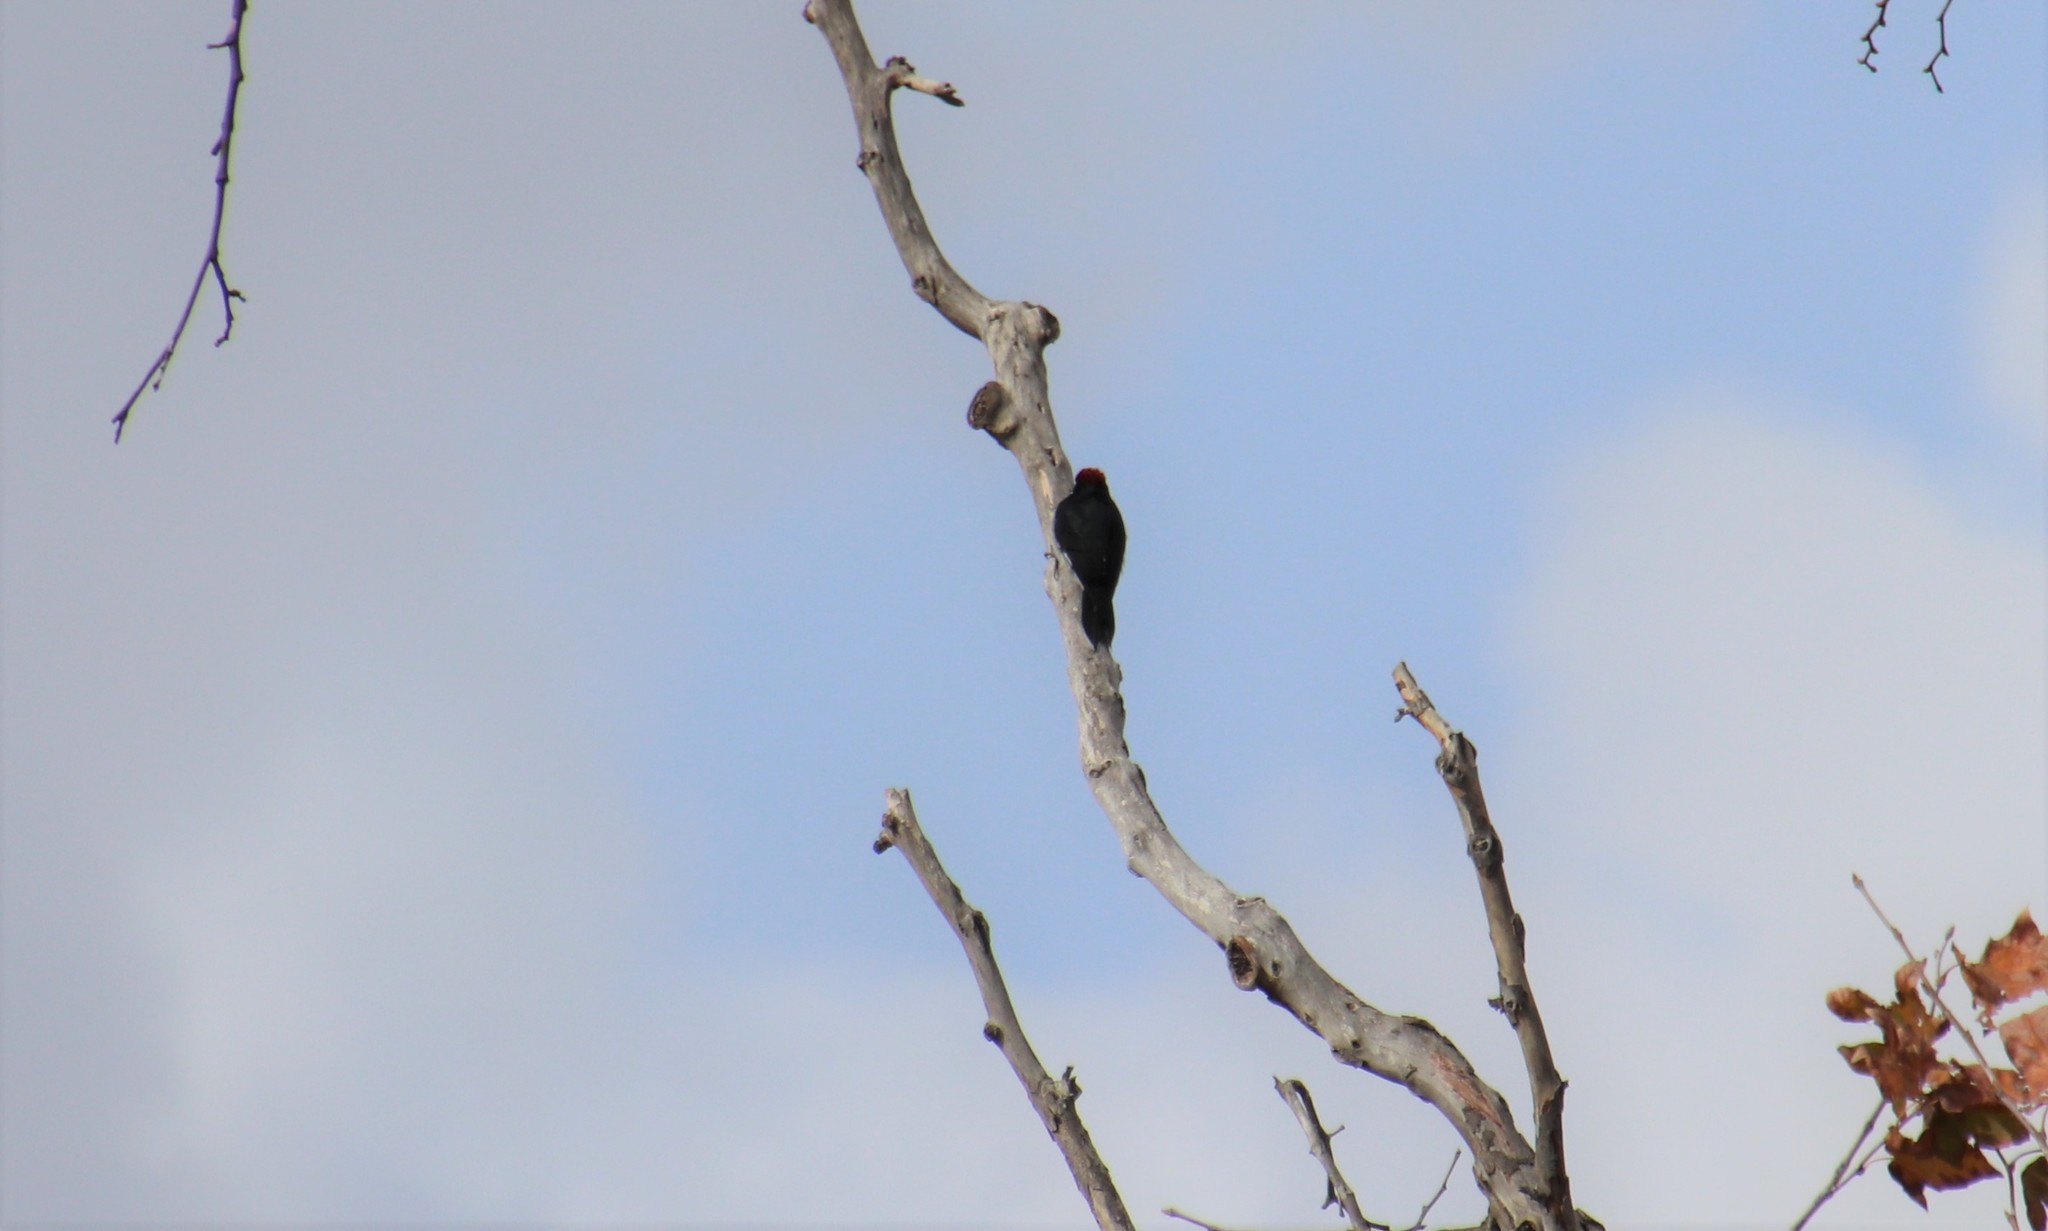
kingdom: Animalia
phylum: Chordata
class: Aves
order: Piciformes
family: Picidae
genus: Melanerpes
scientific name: Melanerpes formicivorus
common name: Acorn woodpecker
